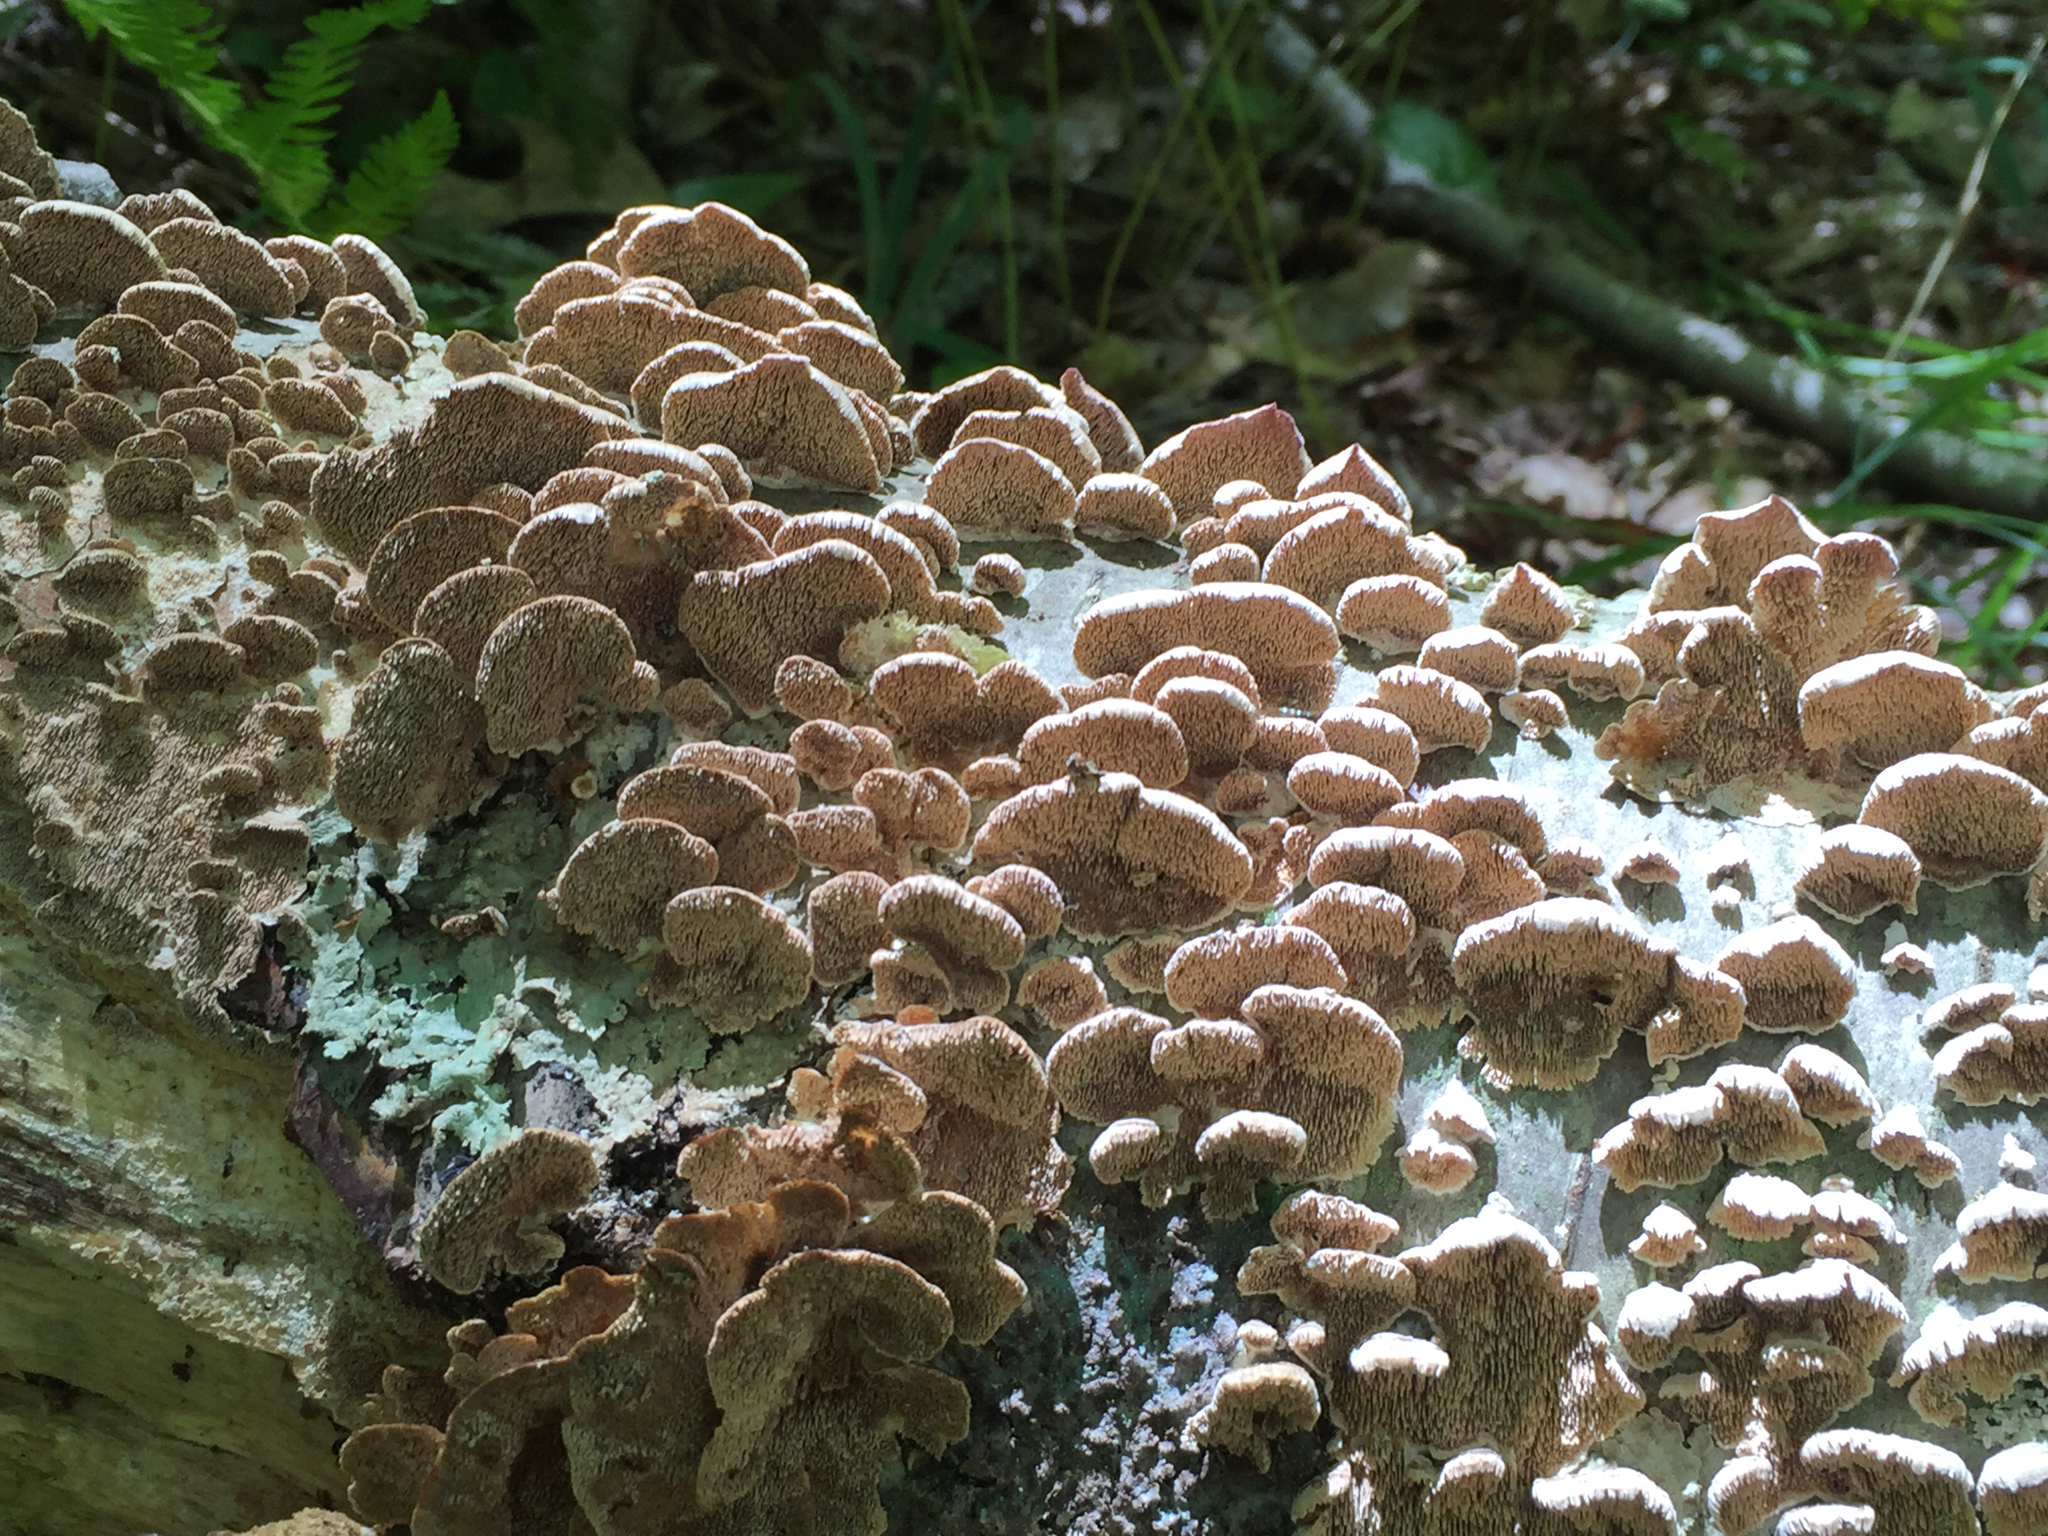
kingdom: Fungi
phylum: Basidiomycota
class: Agaricomycetes
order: Hymenochaetales
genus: Trichaptum
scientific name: Trichaptum biforme
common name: Violet-toothed polypore
